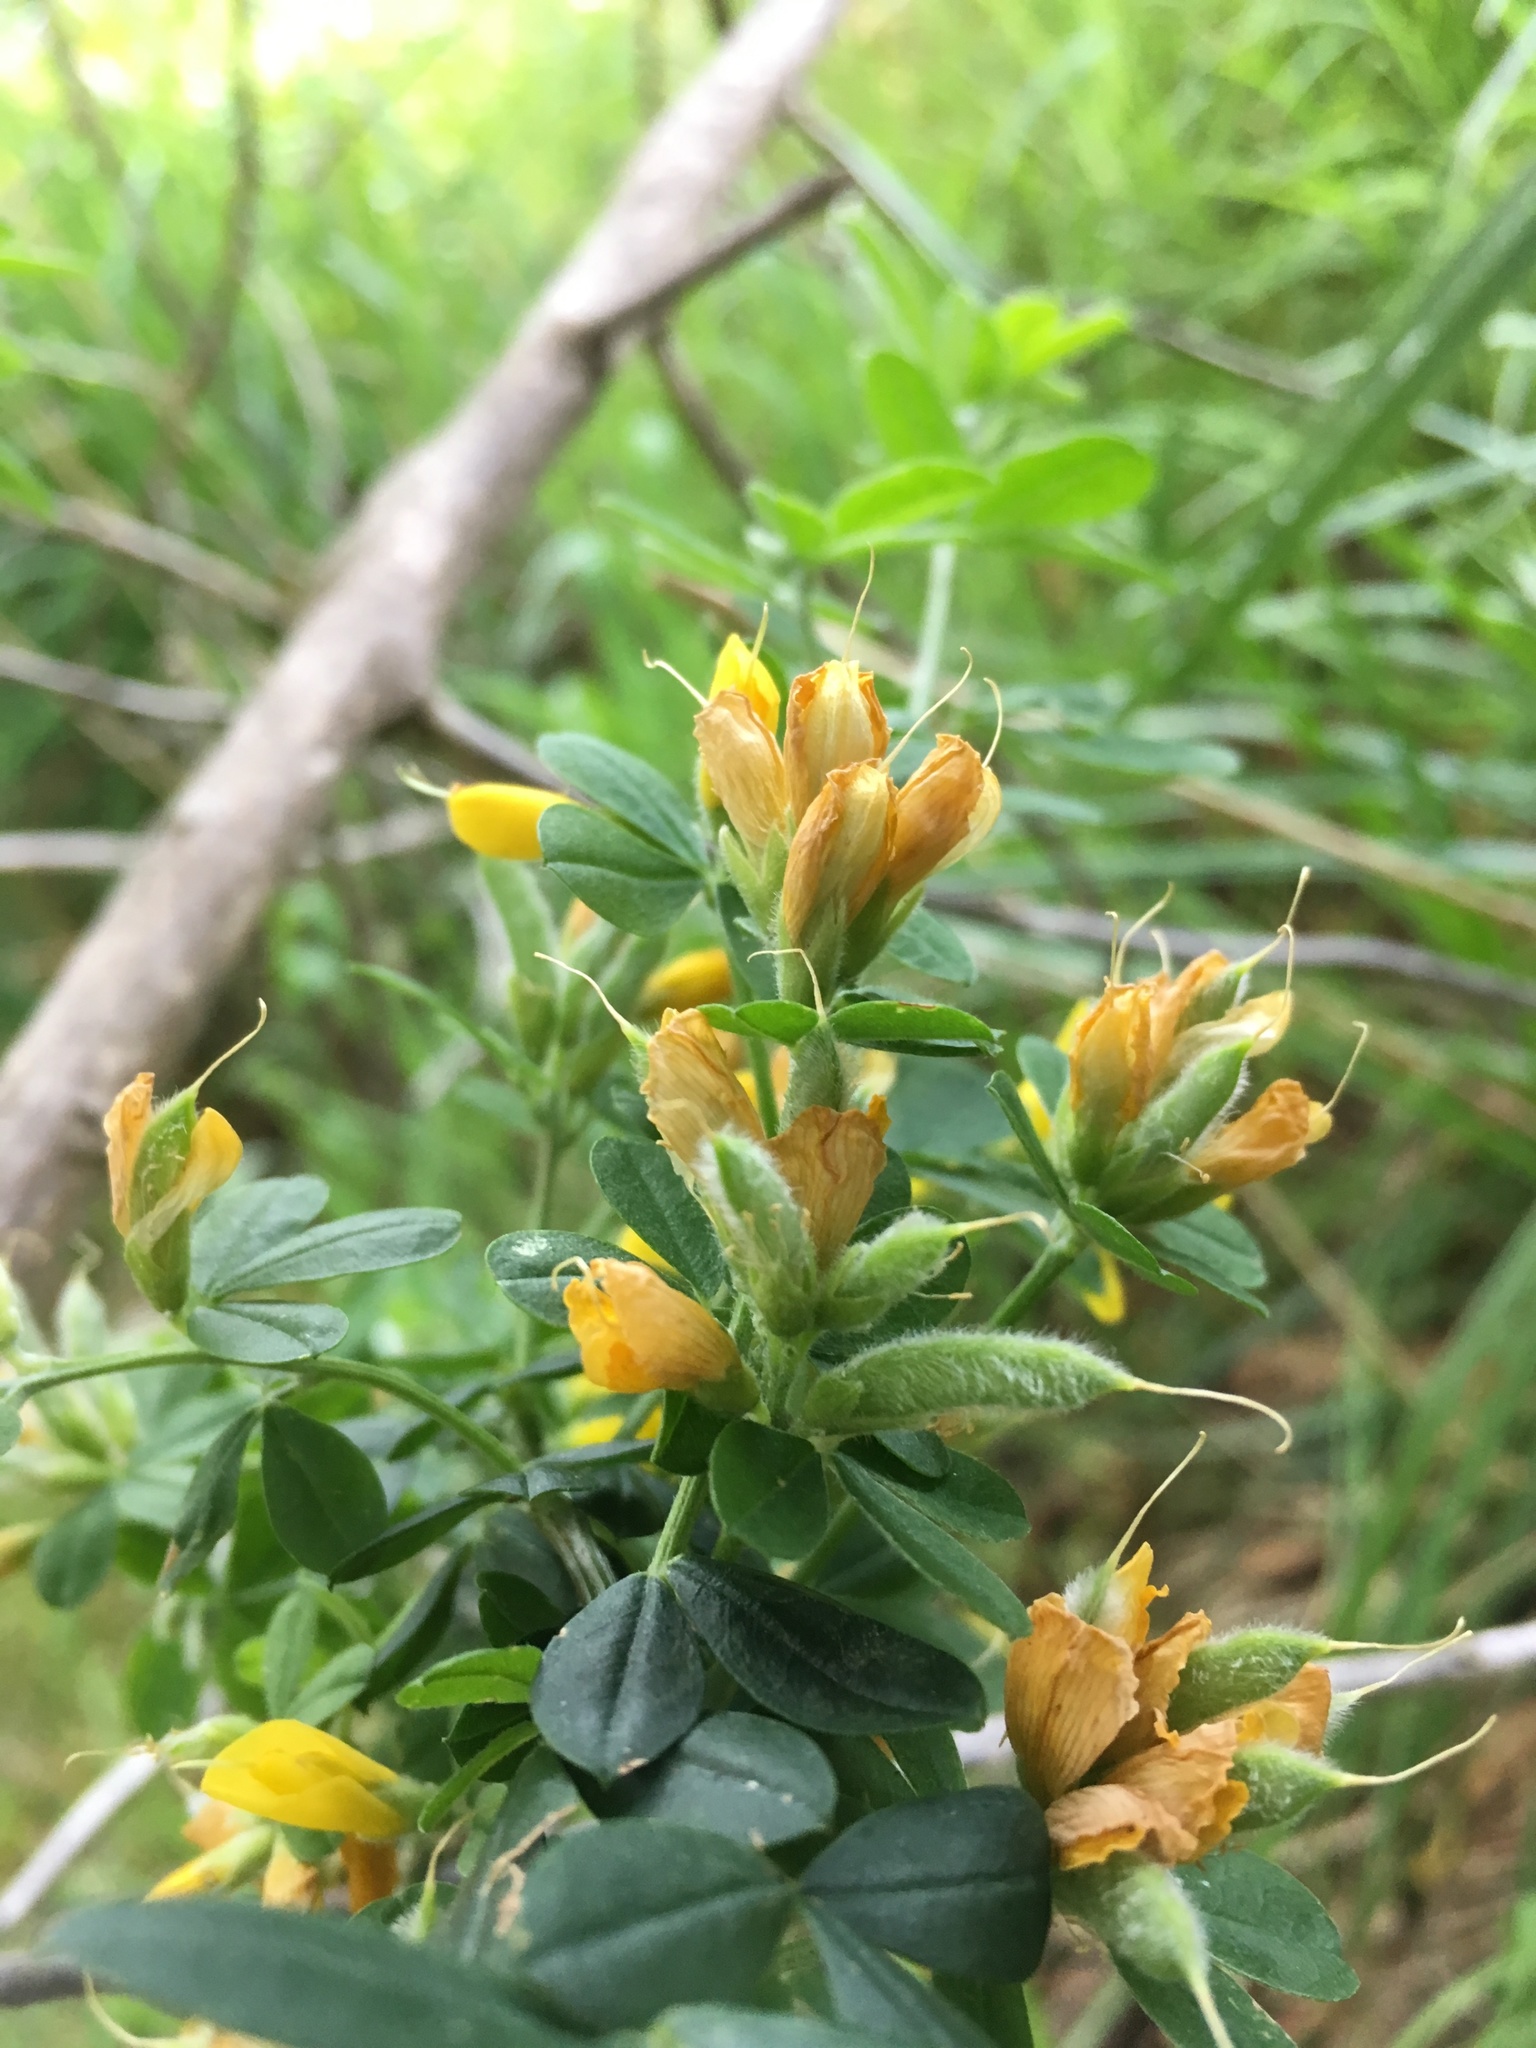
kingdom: Plantae
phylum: Tracheophyta
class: Magnoliopsida
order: Fabales
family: Fabaceae
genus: Genista
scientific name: Genista monspessulana
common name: Montpellier broom
